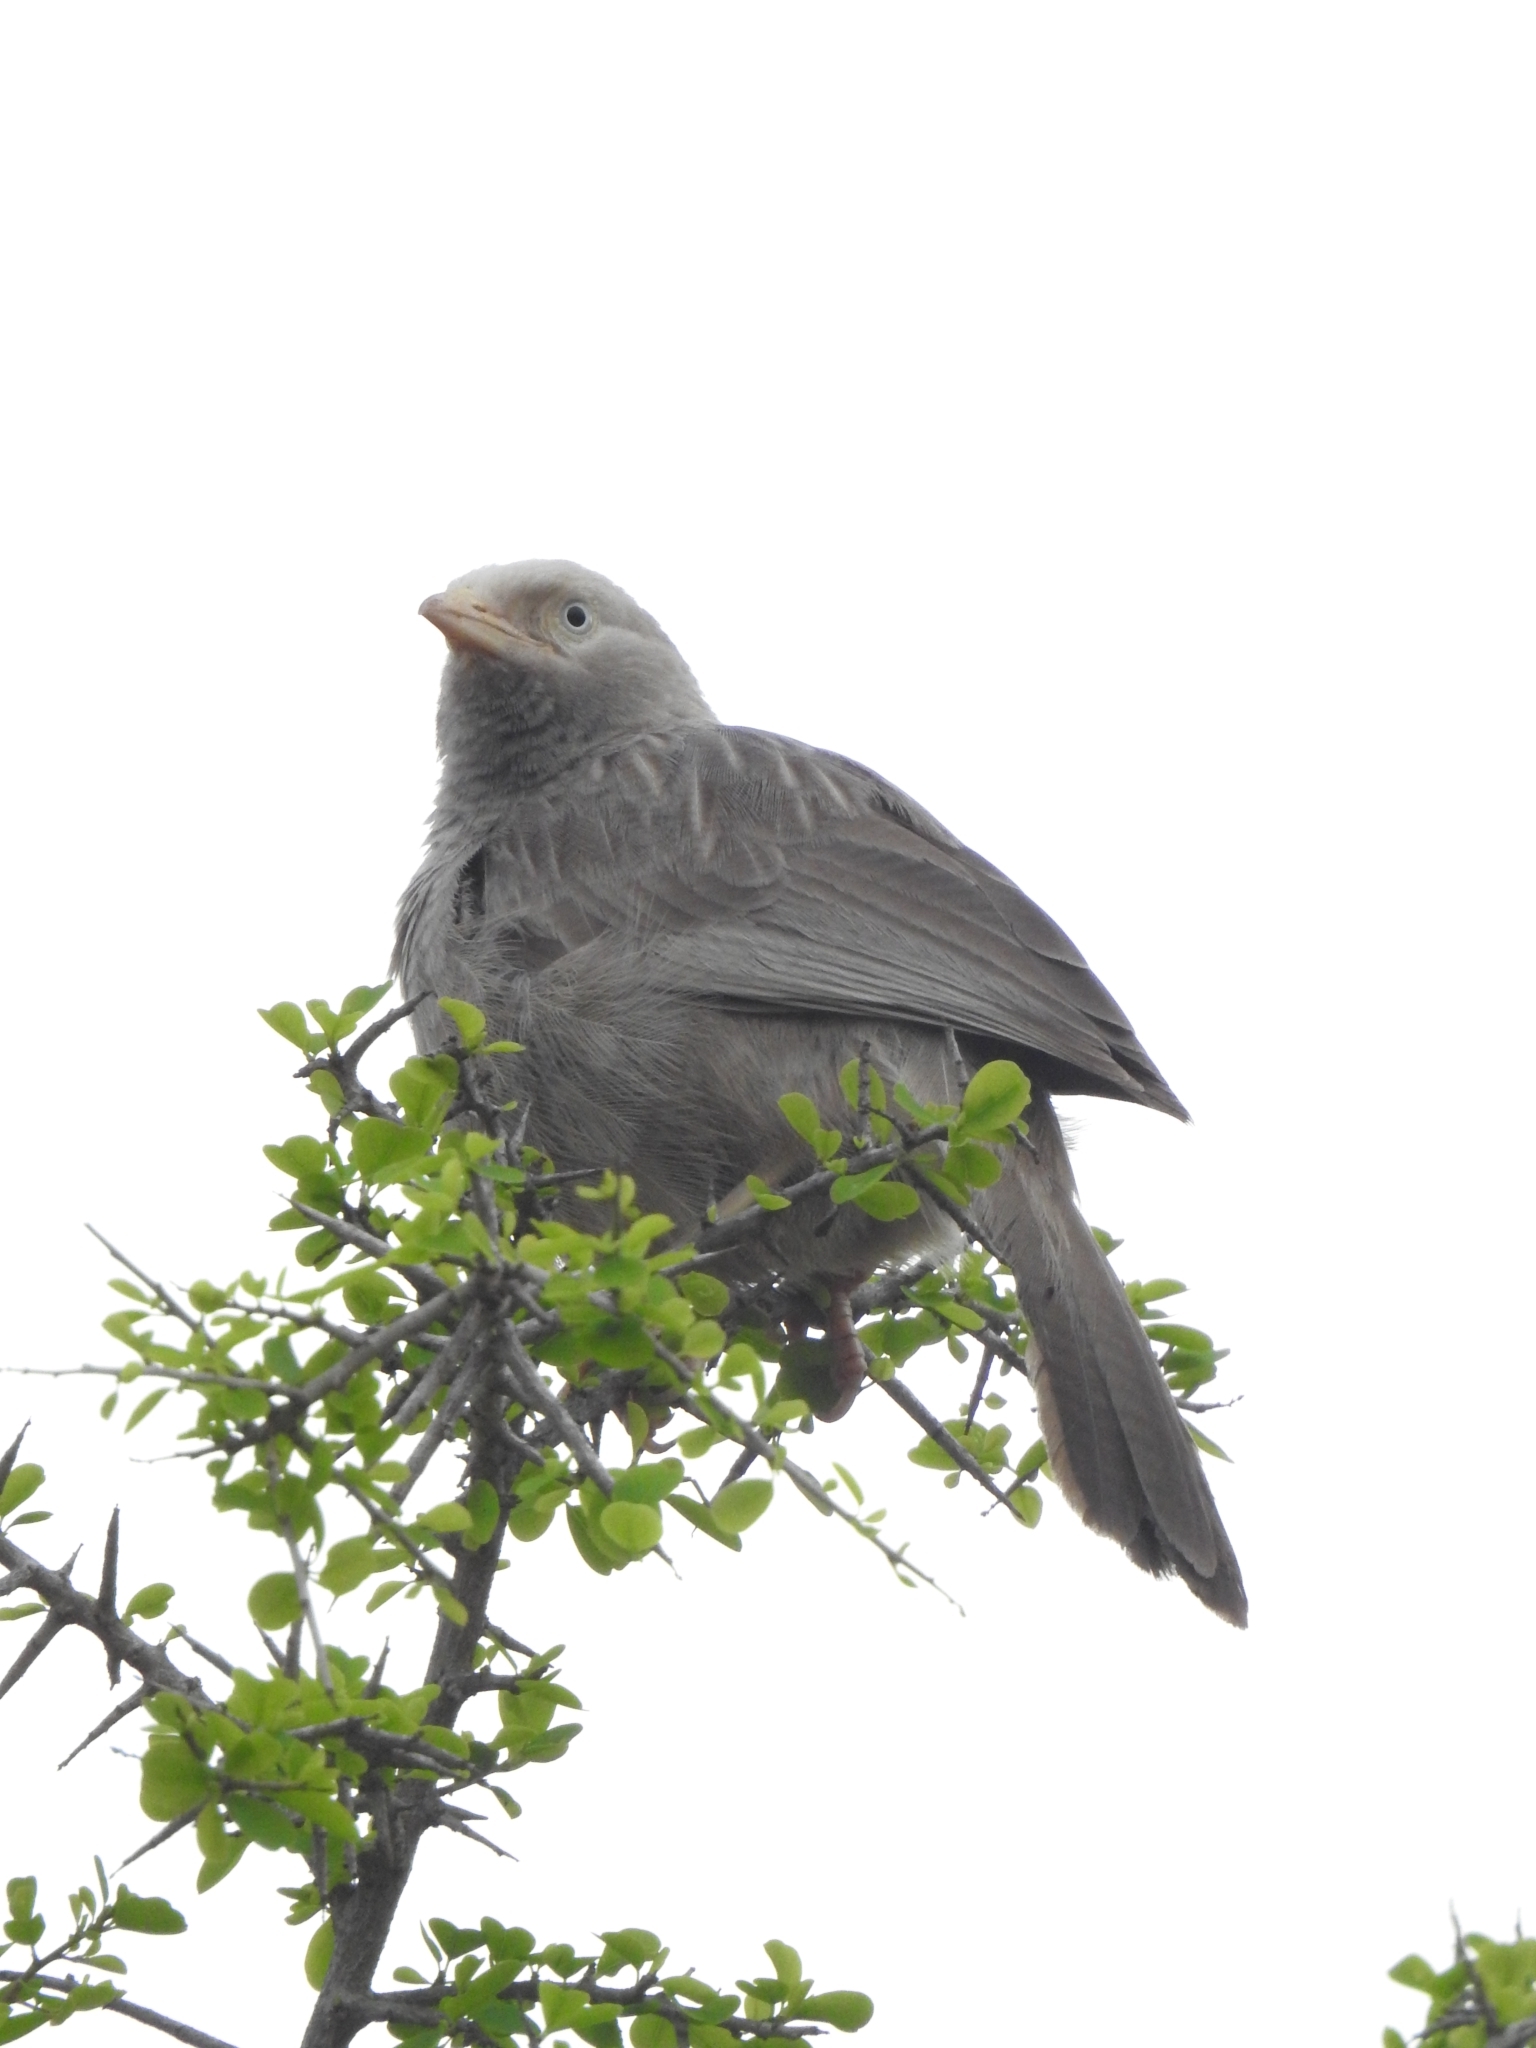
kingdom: Animalia
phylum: Chordata
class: Aves
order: Passeriformes
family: Leiothrichidae
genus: Turdoides
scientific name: Turdoides affinis
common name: Yellow-billed babbler
